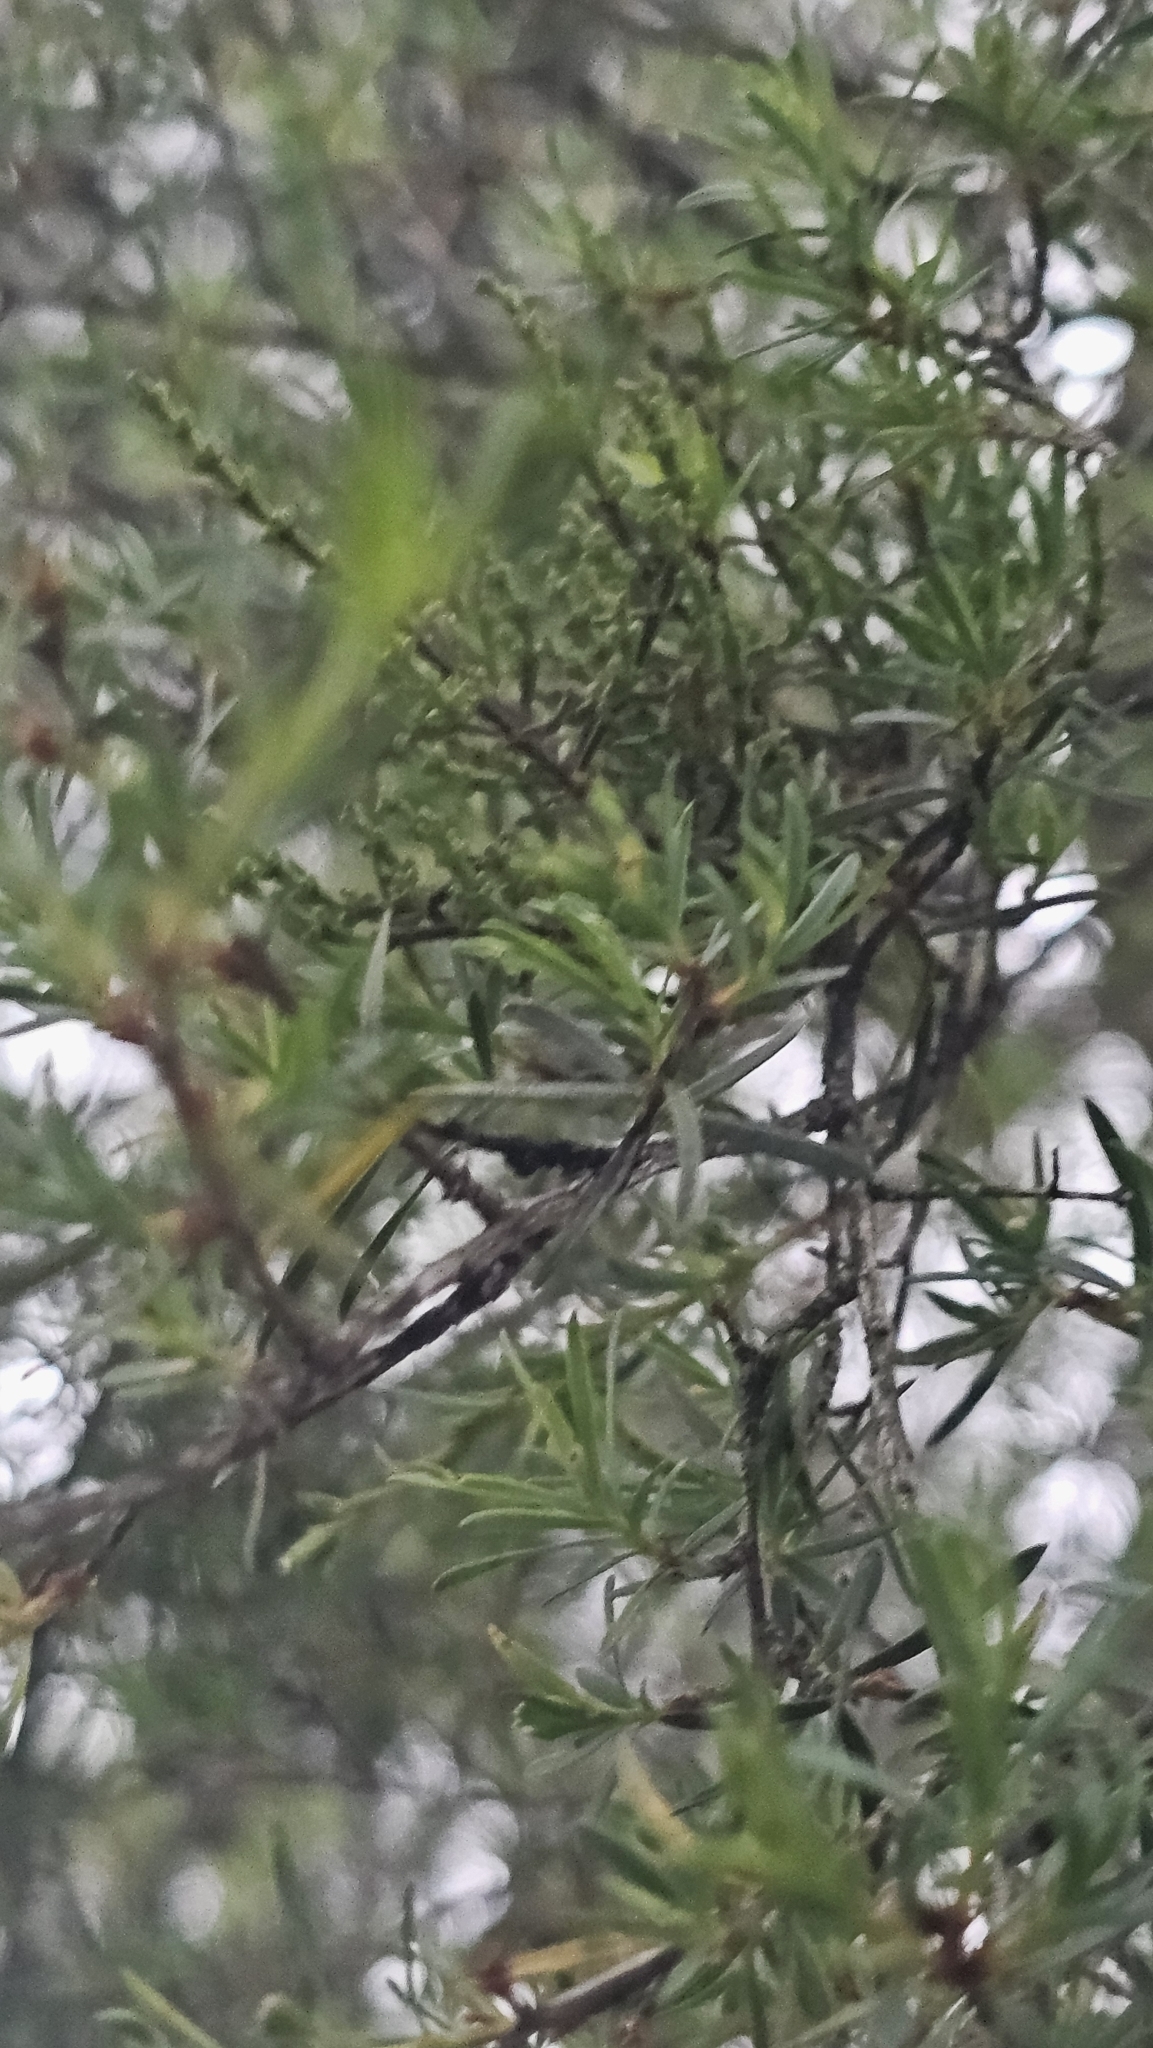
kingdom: Plantae
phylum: Tracheophyta
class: Magnoliopsida
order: Santalales
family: Viscaceae
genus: Korthalsella
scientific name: Korthalsella salicornioides
